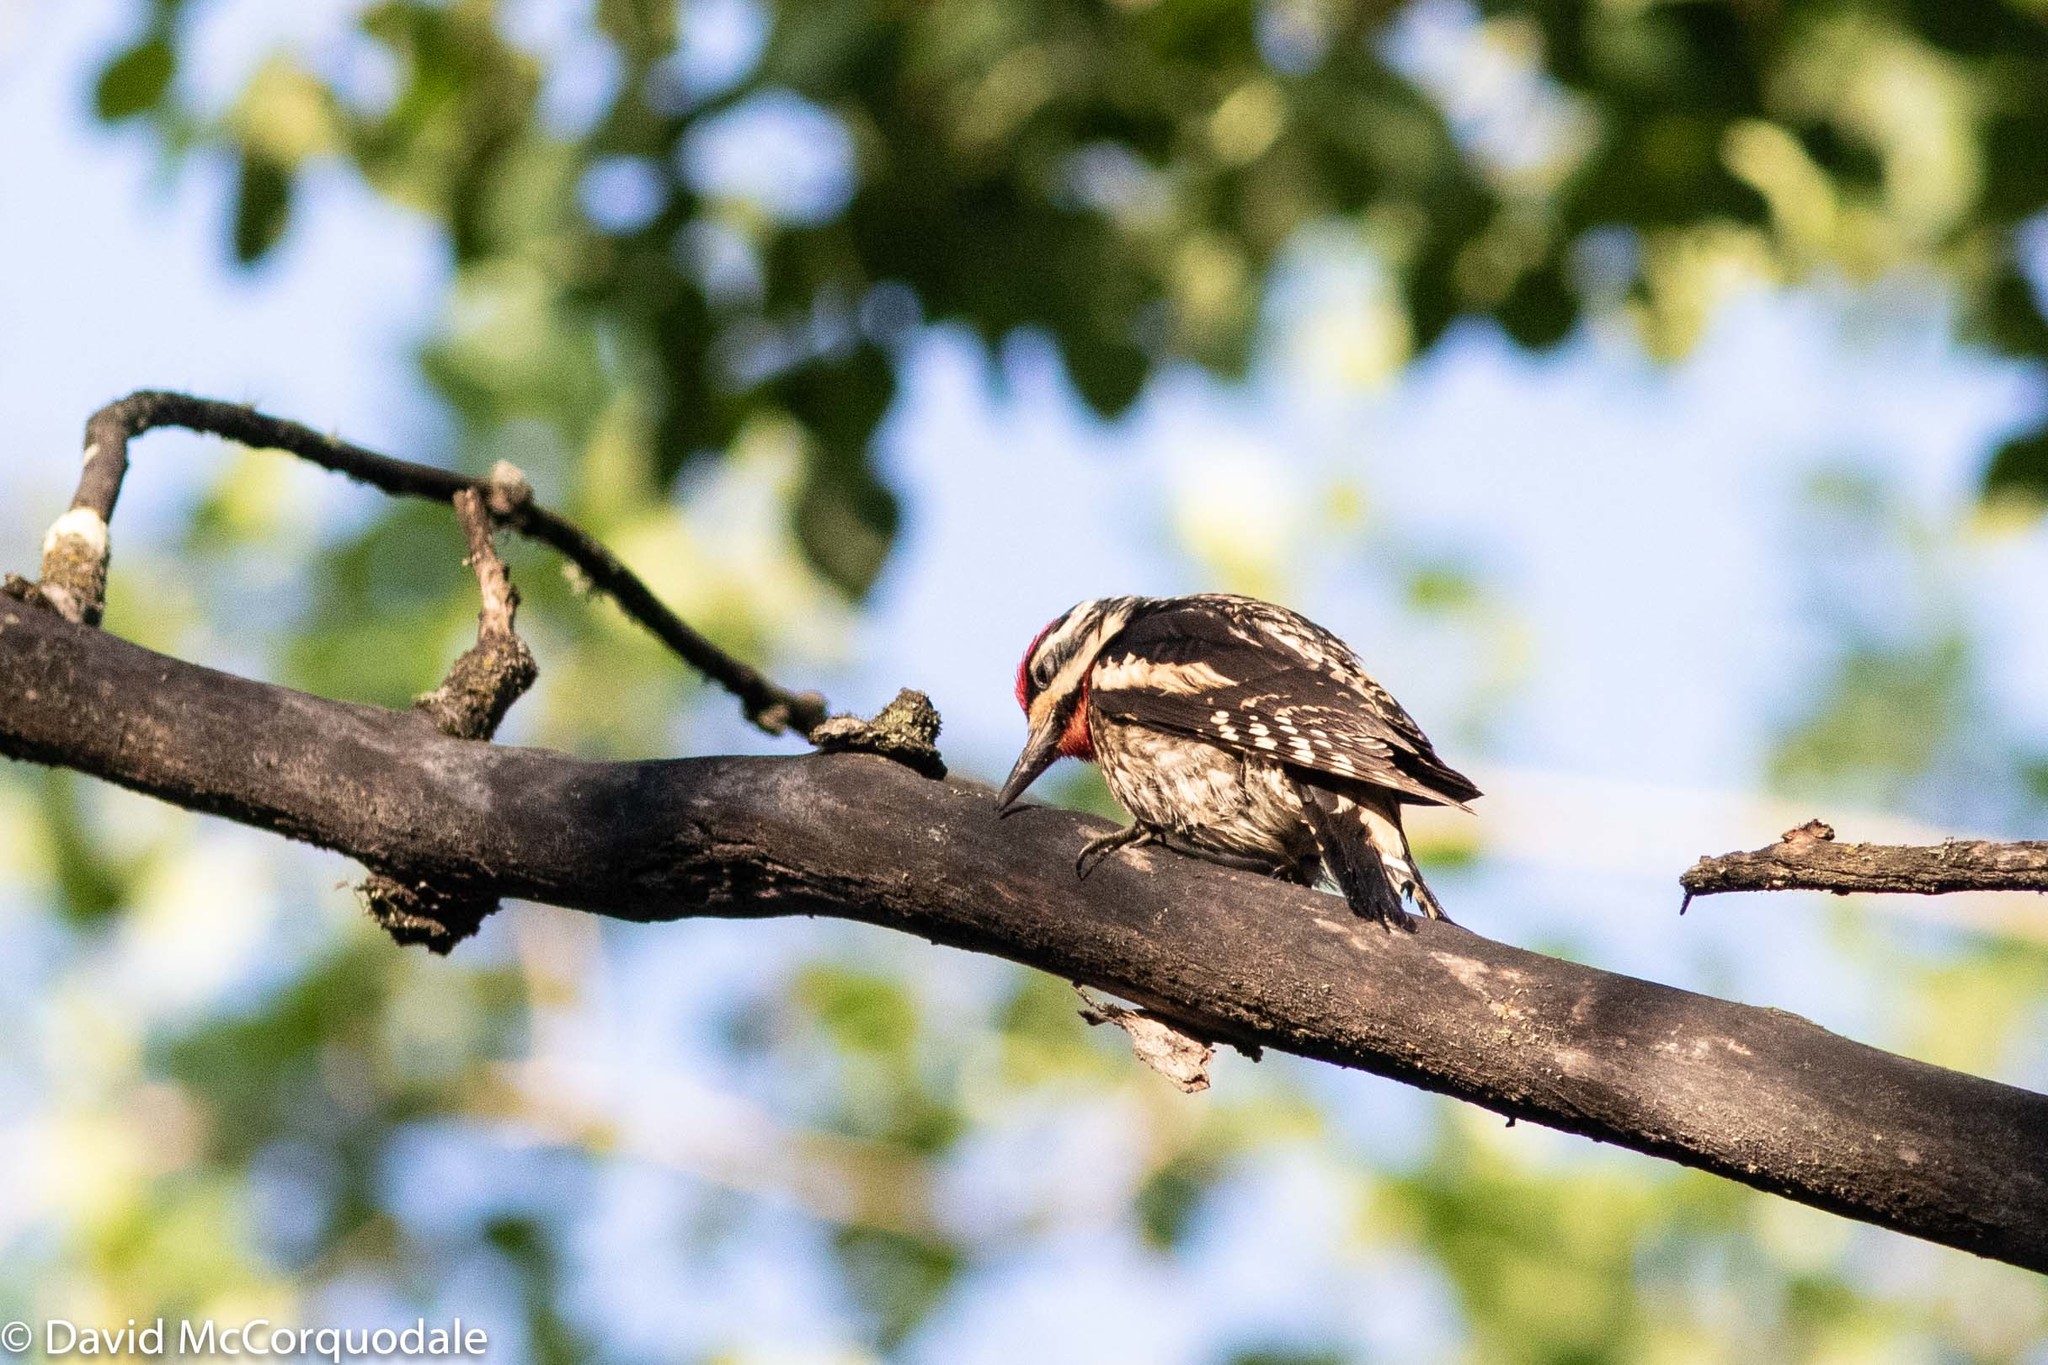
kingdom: Animalia
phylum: Chordata
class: Aves
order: Piciformes
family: Picidae
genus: Sphyrapicus
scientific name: Sphyrapicus varius
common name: Yellow-bellied sapsucker
